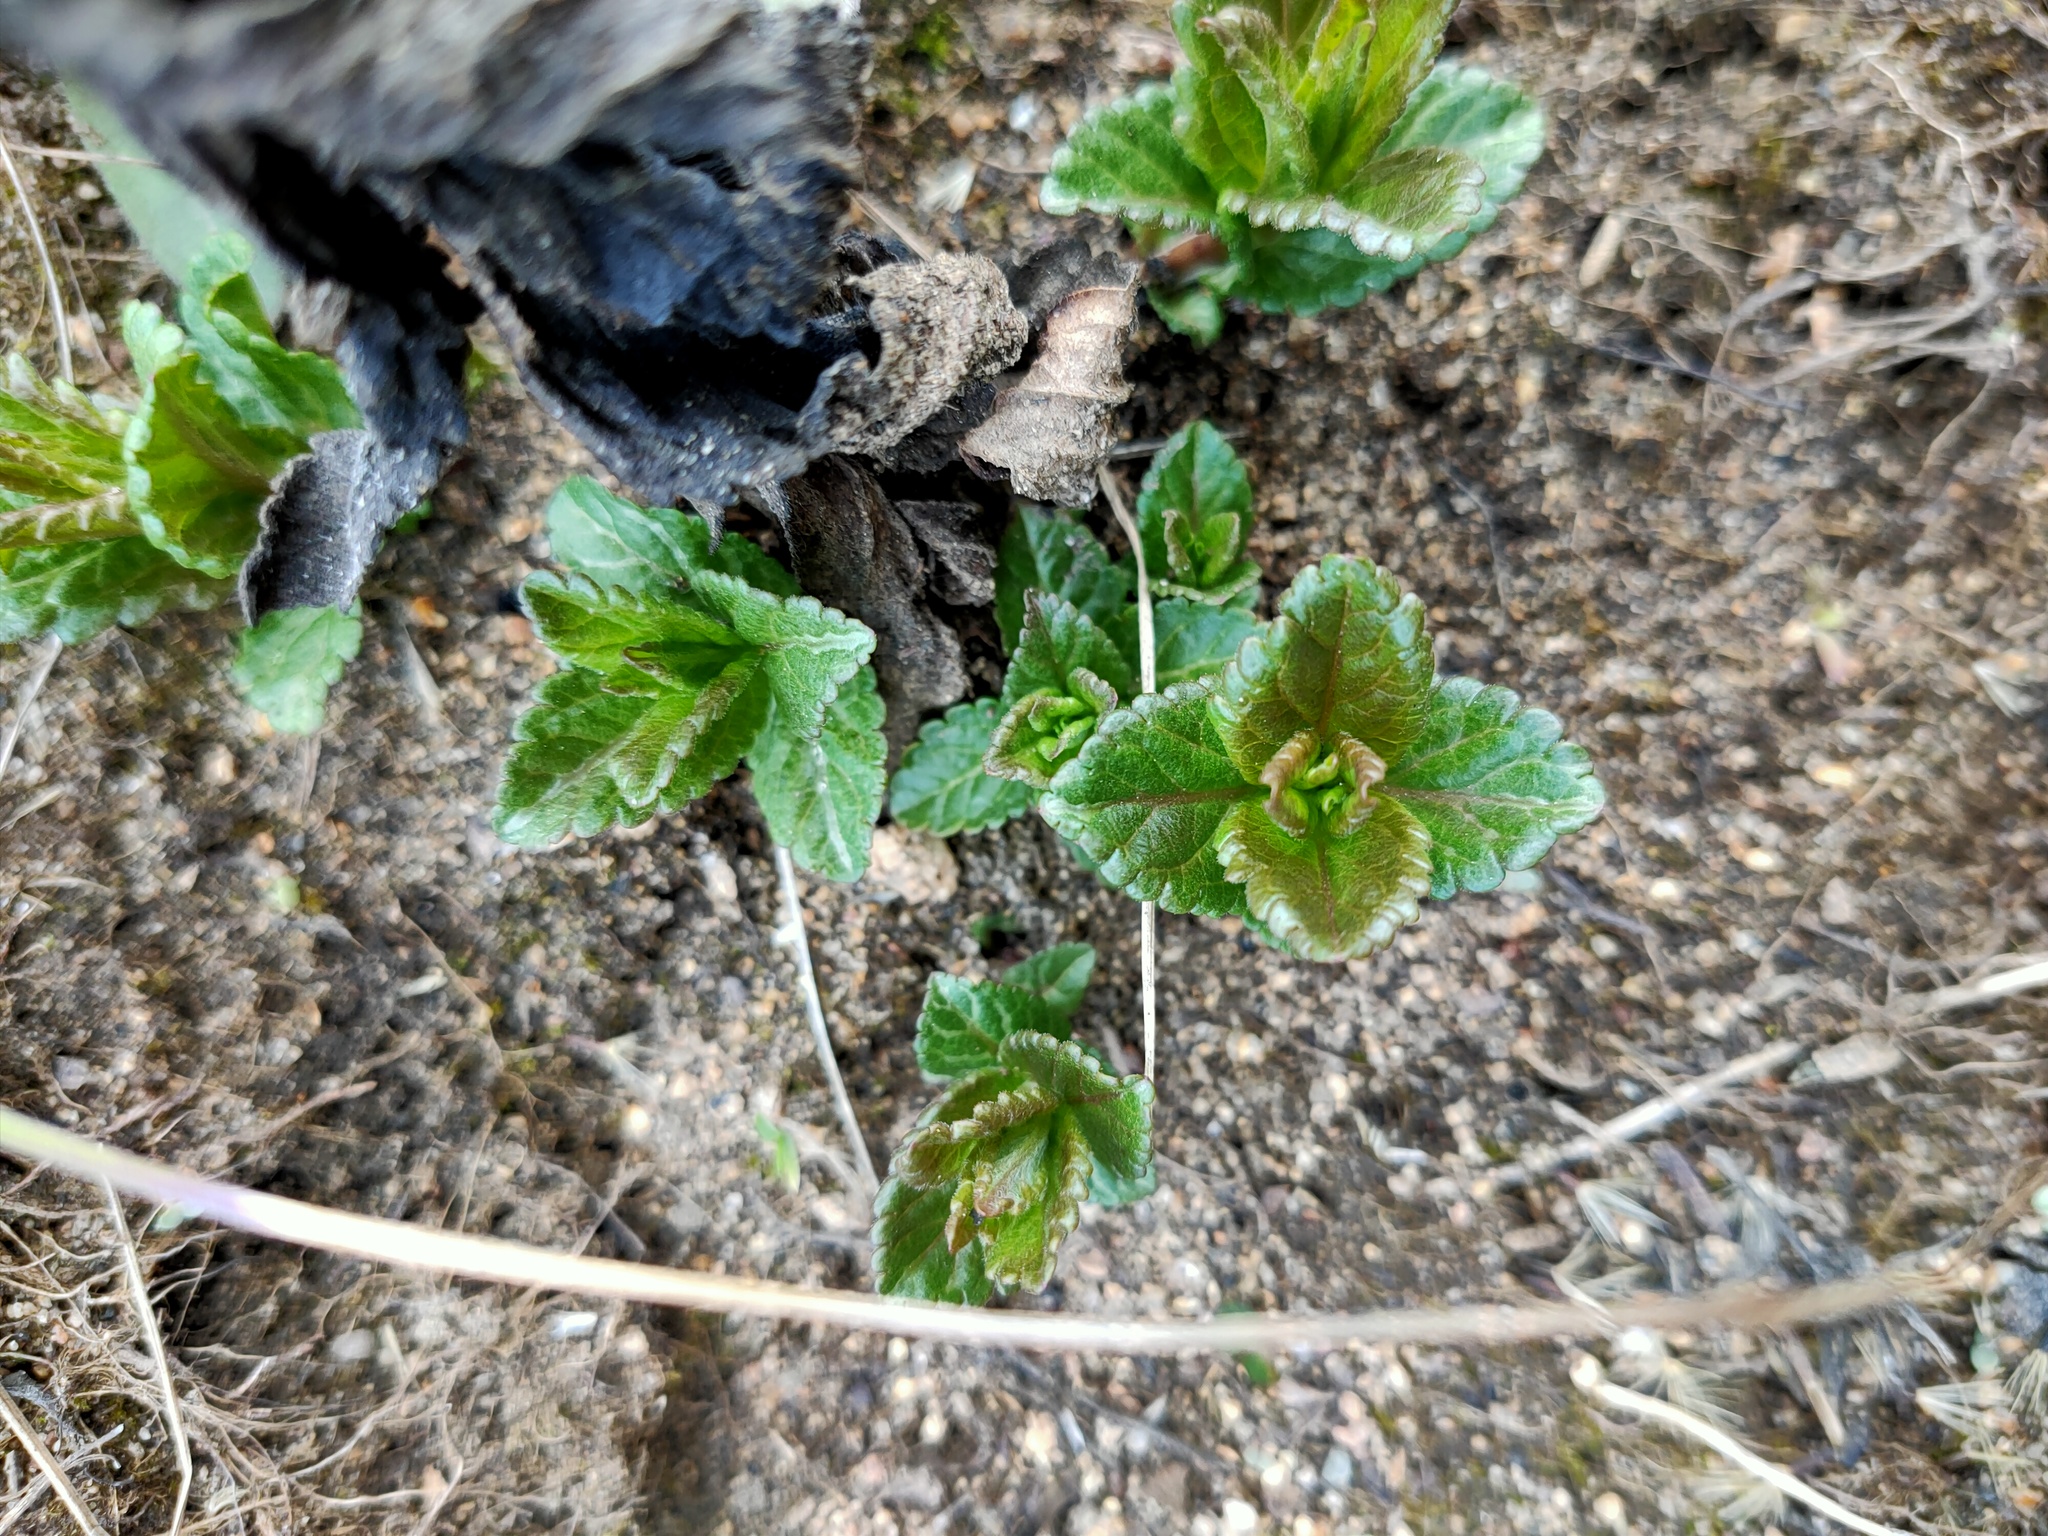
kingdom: Plantae
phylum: Tracheophyta
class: Magnoliopsida
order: Lamiales
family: Plantaginaceae
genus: Veronica
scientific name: Veronica chamaedrys
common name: Germander speedwell
